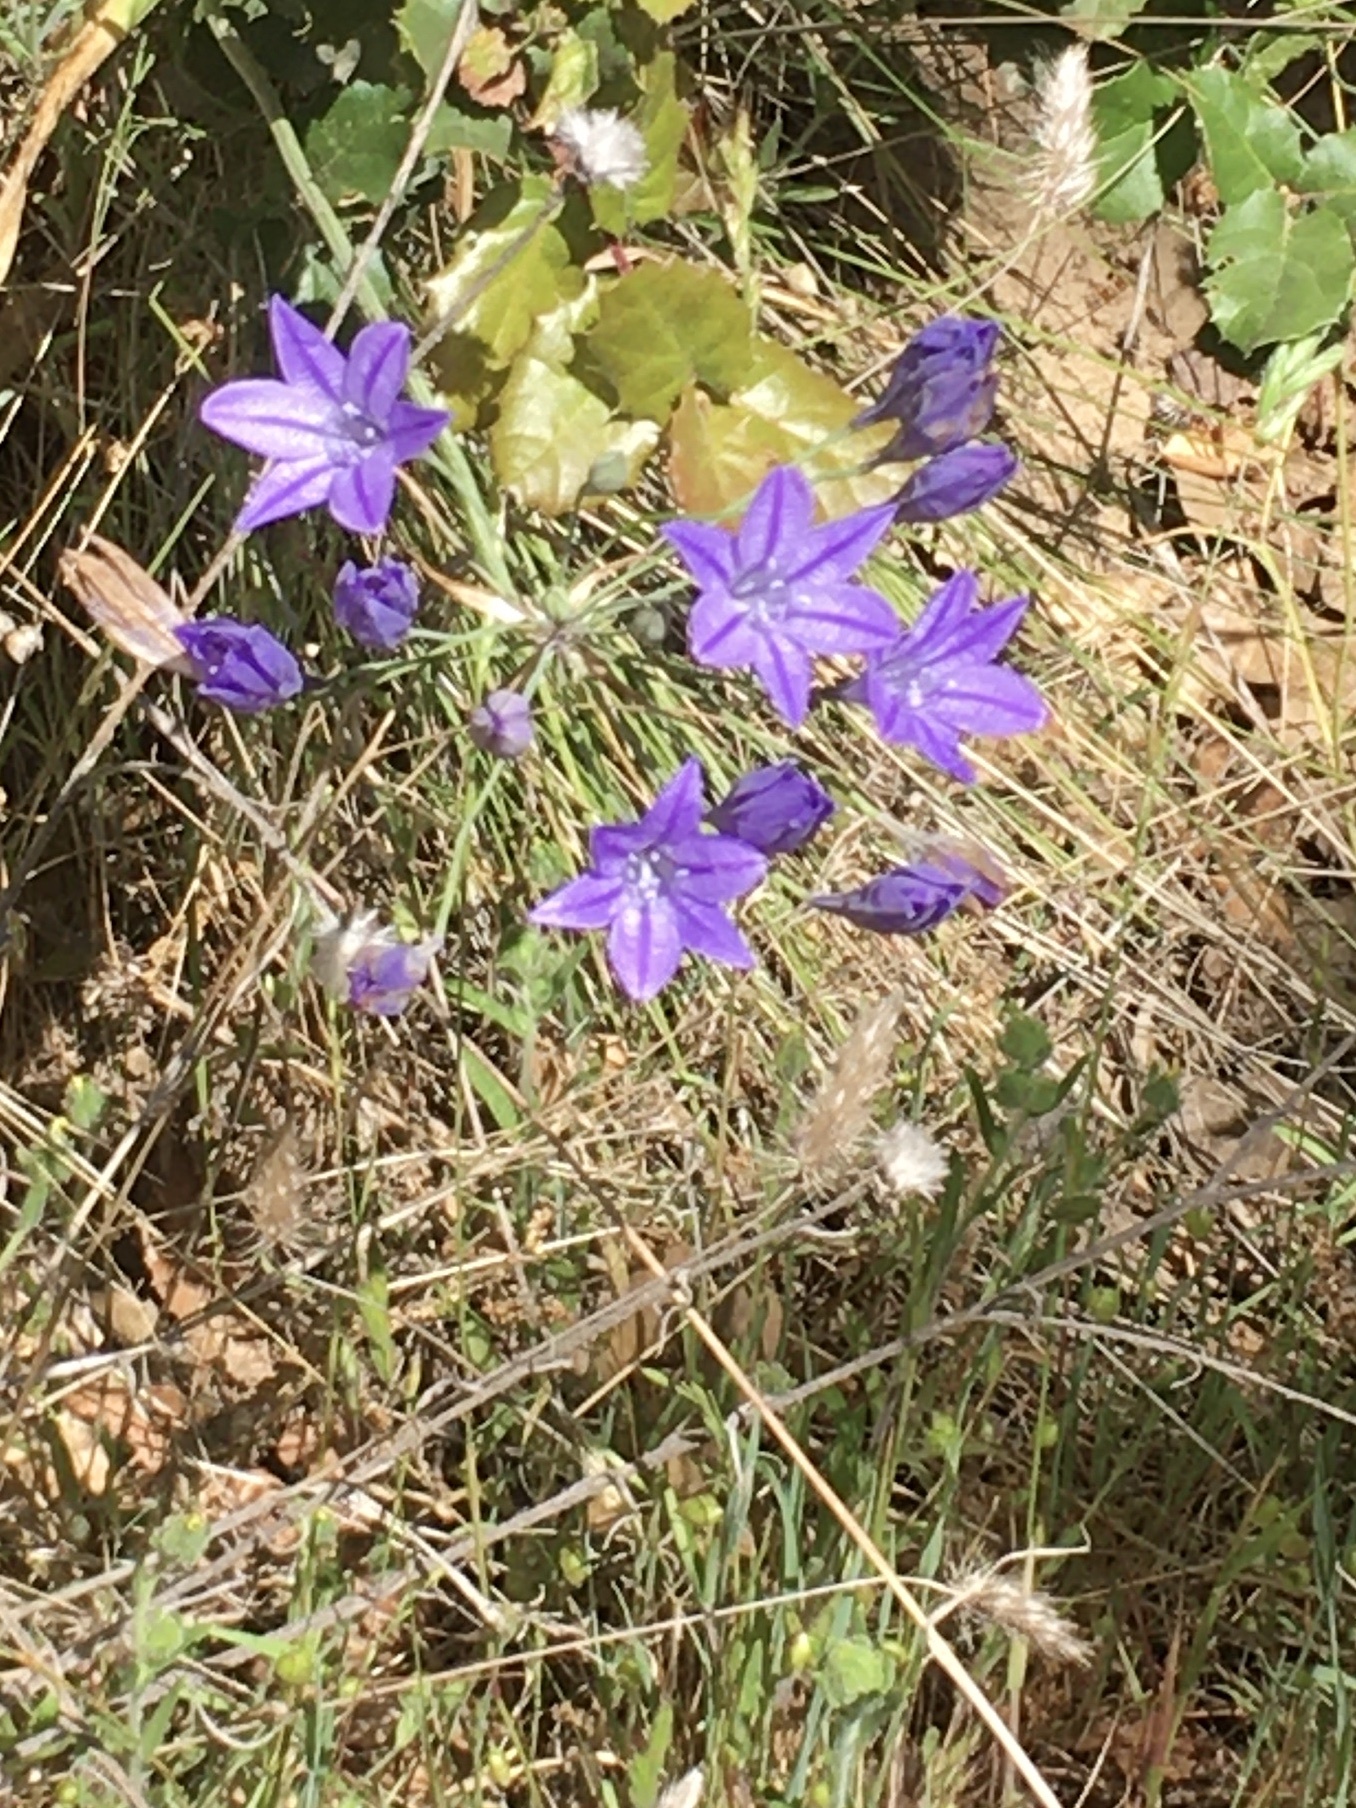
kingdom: Plantae
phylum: Tracheophyta
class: Liliopsida
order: Asparagales
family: Asparagaceae
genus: Triteleia
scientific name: Triteleia laxa
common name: Triplet-lily
